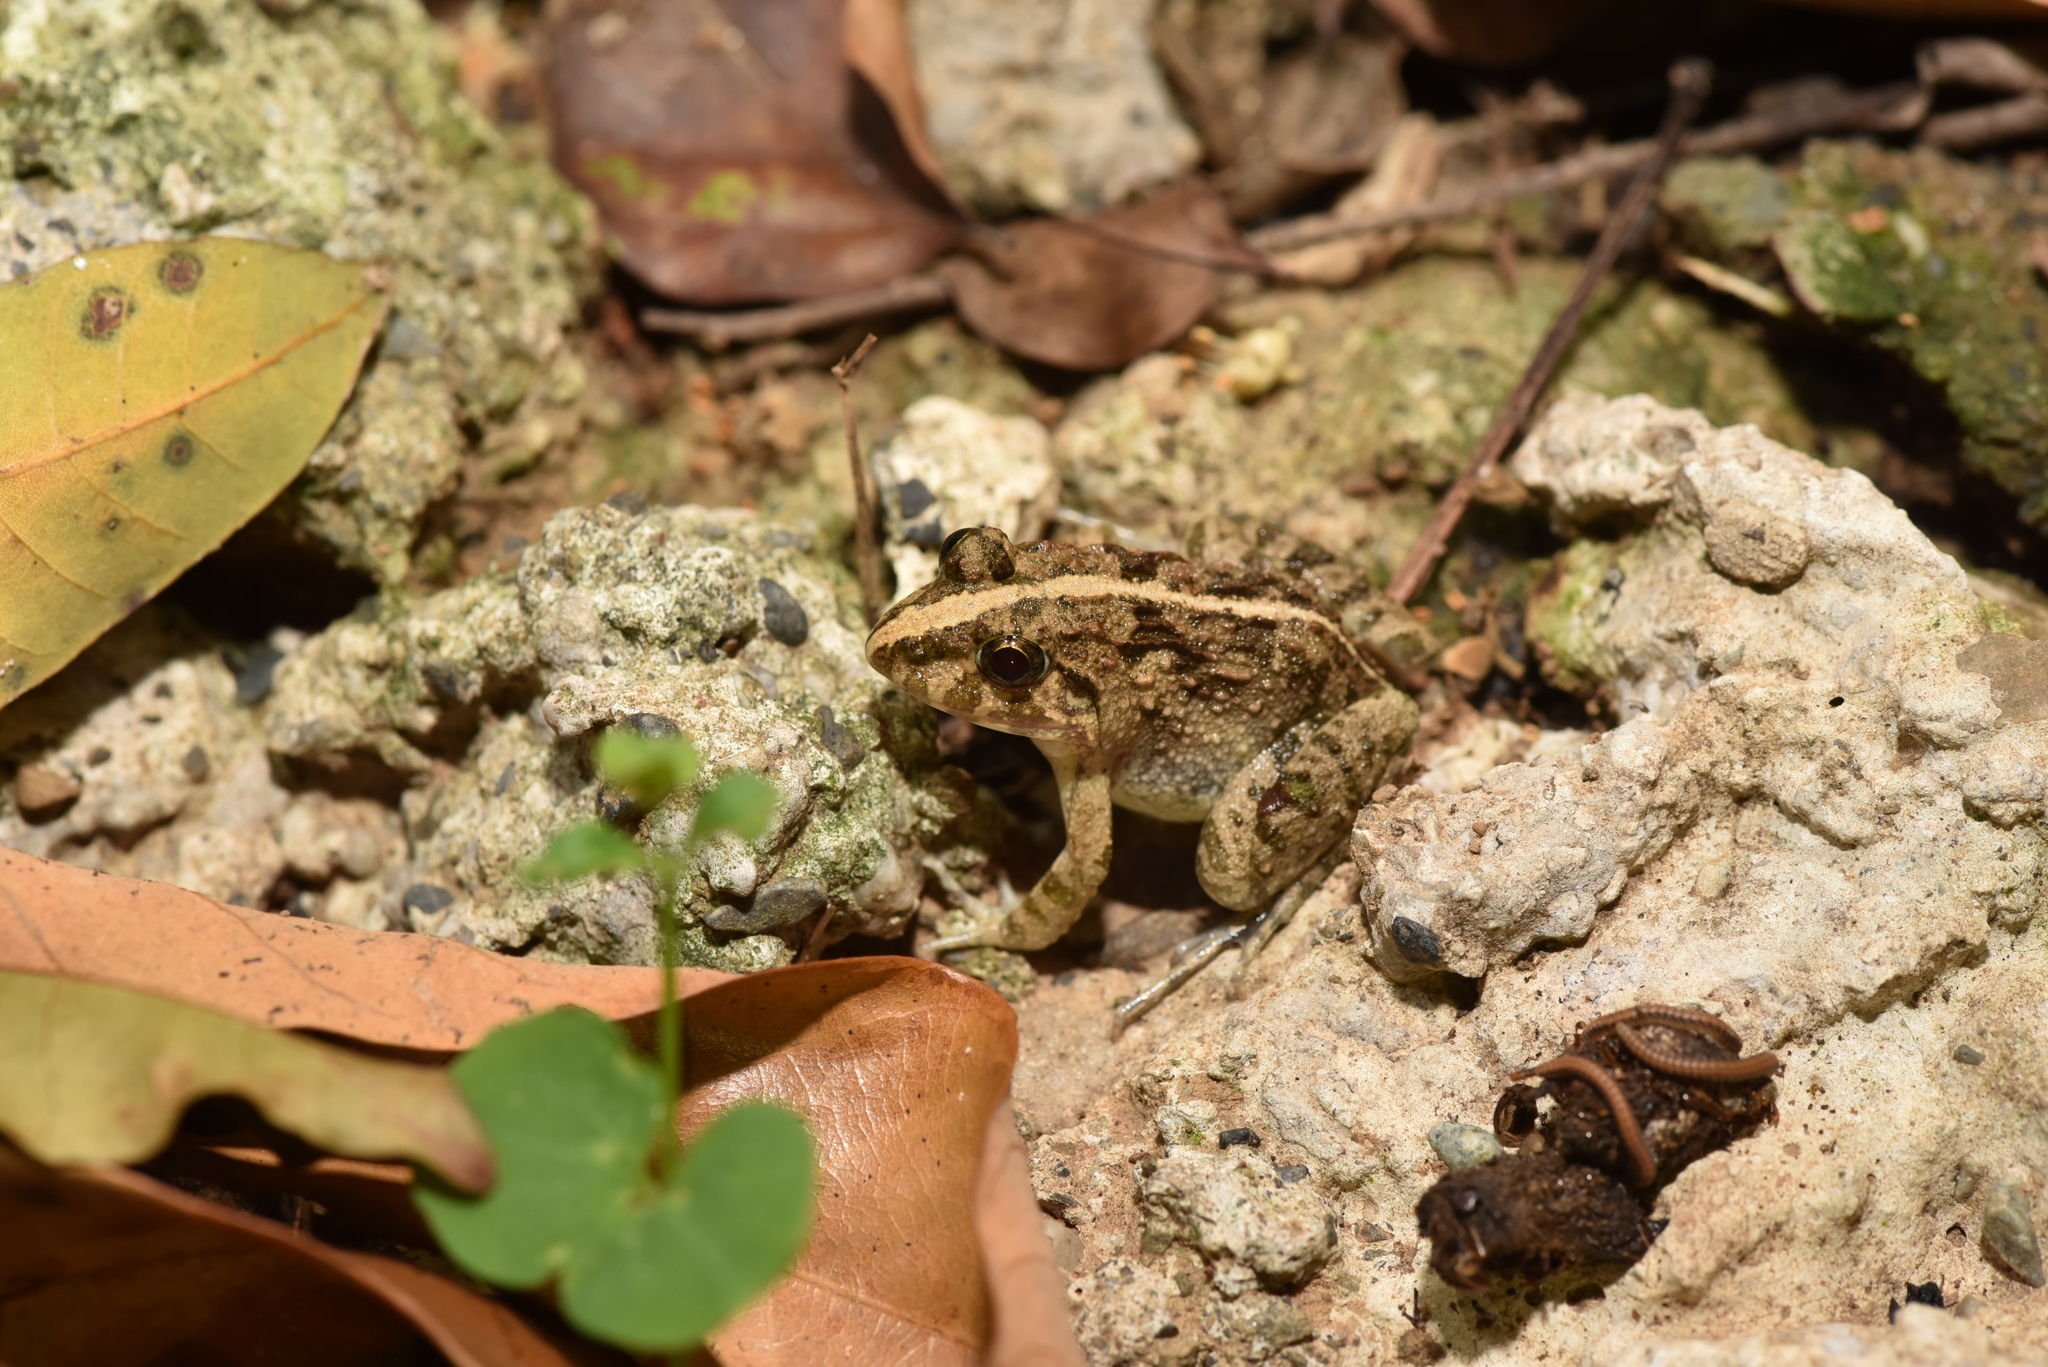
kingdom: Animalia
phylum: Chordata
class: Amphibia
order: Anura
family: Dicroglossidae
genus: Fejervarya
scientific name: Fejervarya limnocharis
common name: Asian grass frog/common pond frog/field frog/grass frog/indian rice frog
